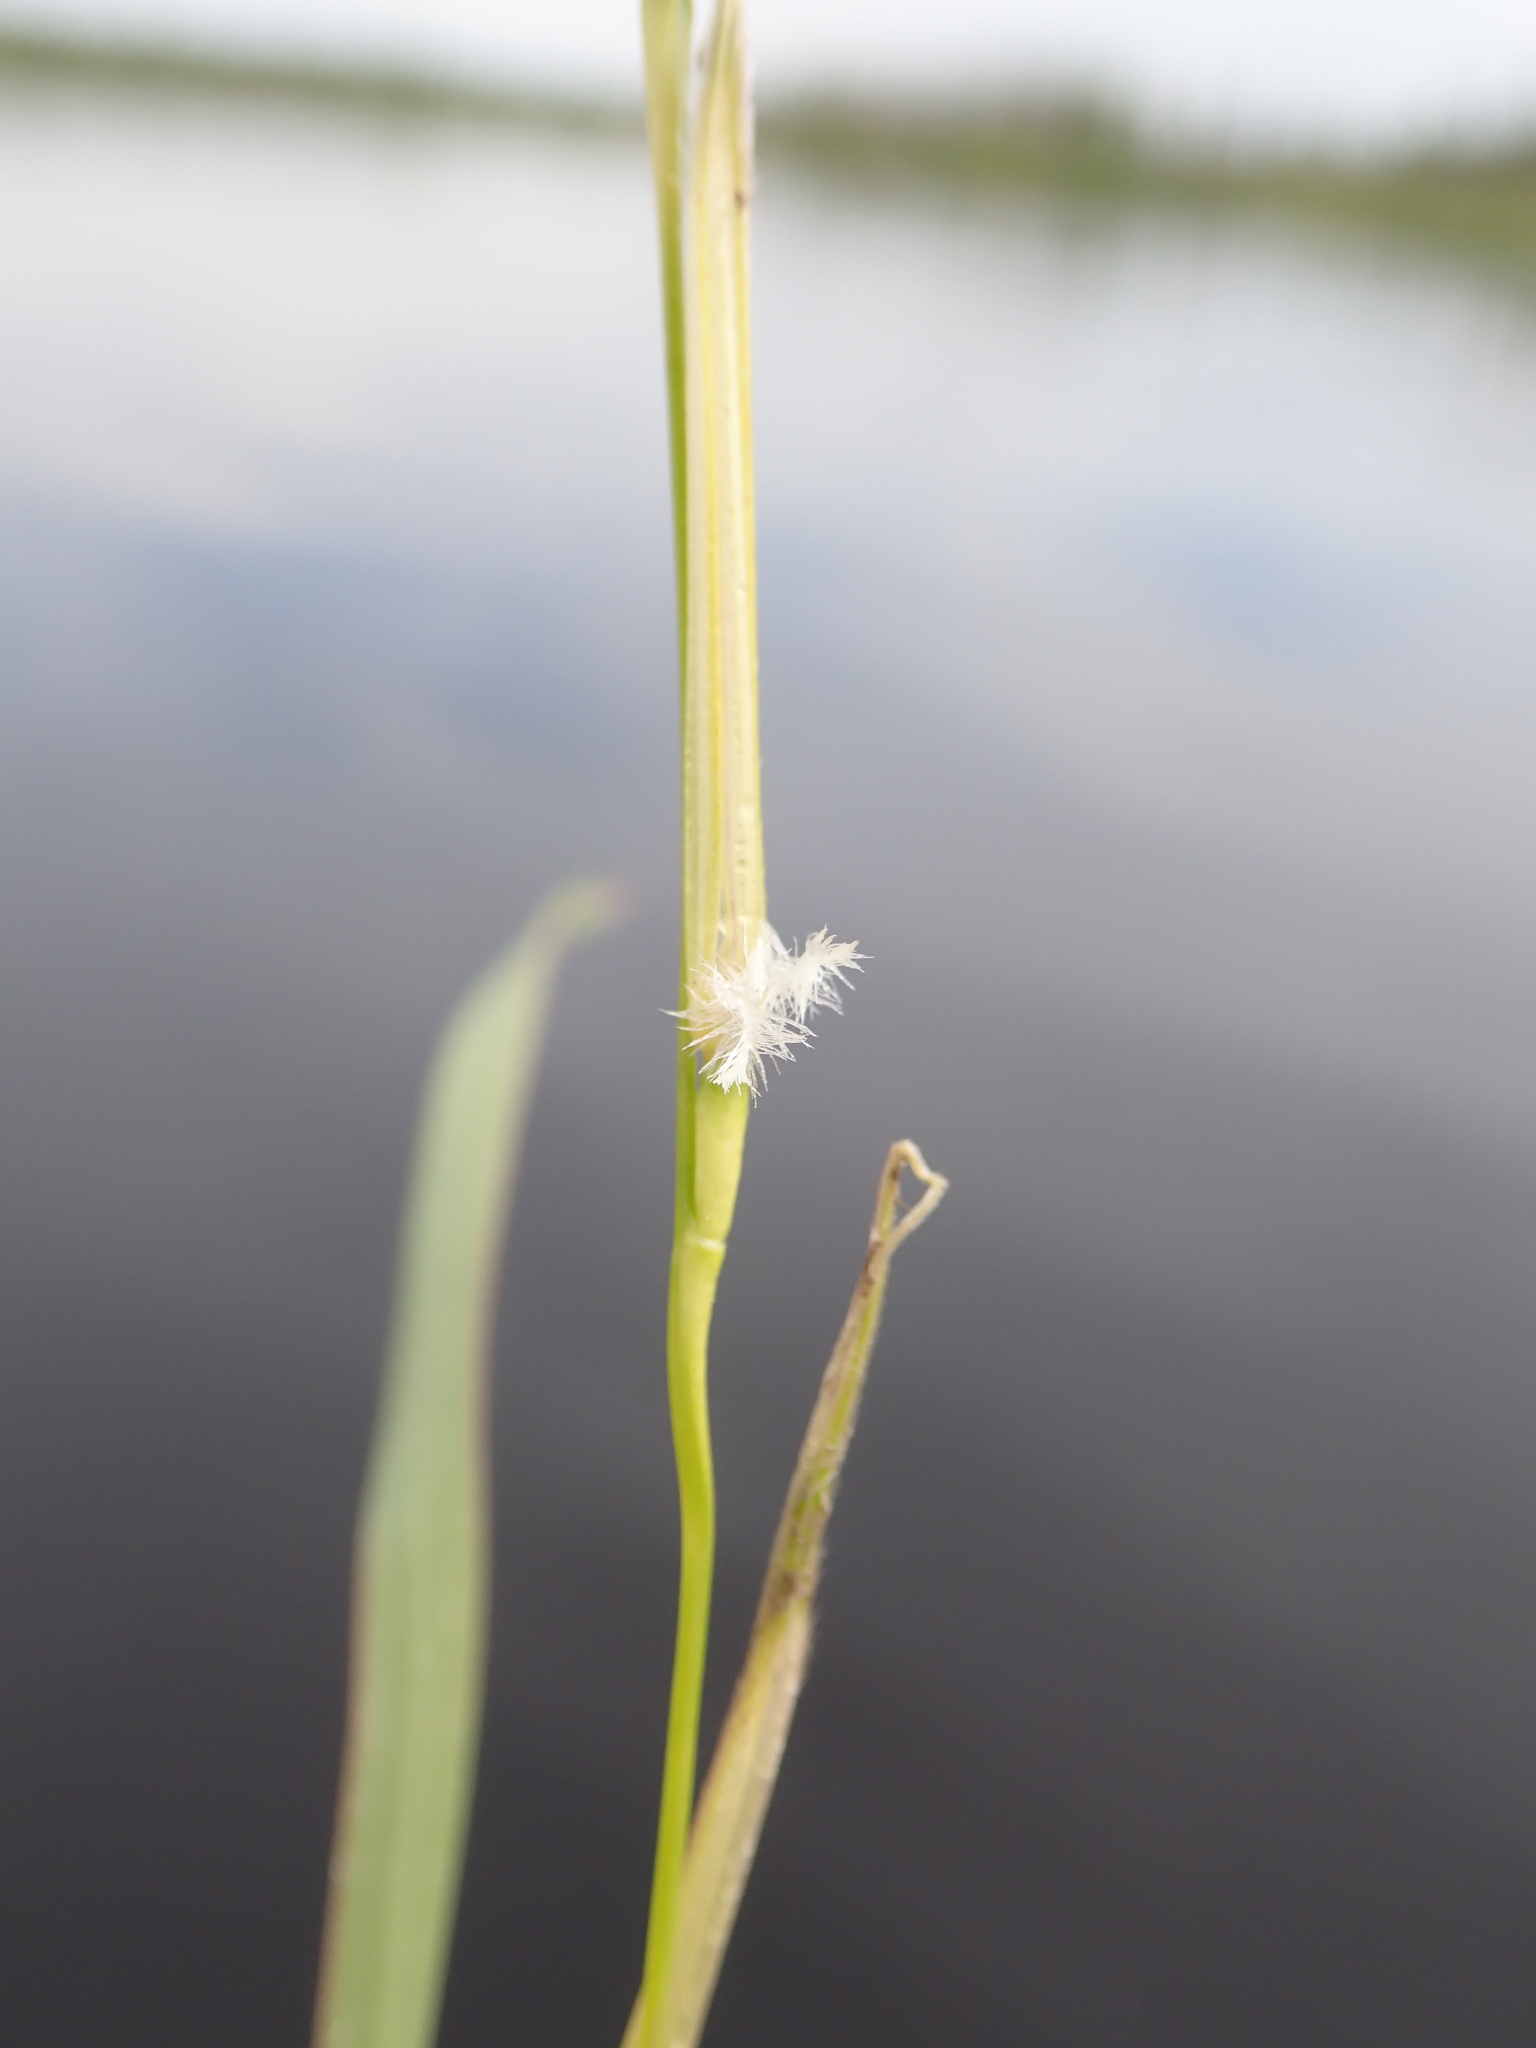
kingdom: Plantae
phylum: Tracheophyta
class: Liliopsida
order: Poales
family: Poaceae
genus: Zizania
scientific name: Zizania palustris
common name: Northern wild rice
